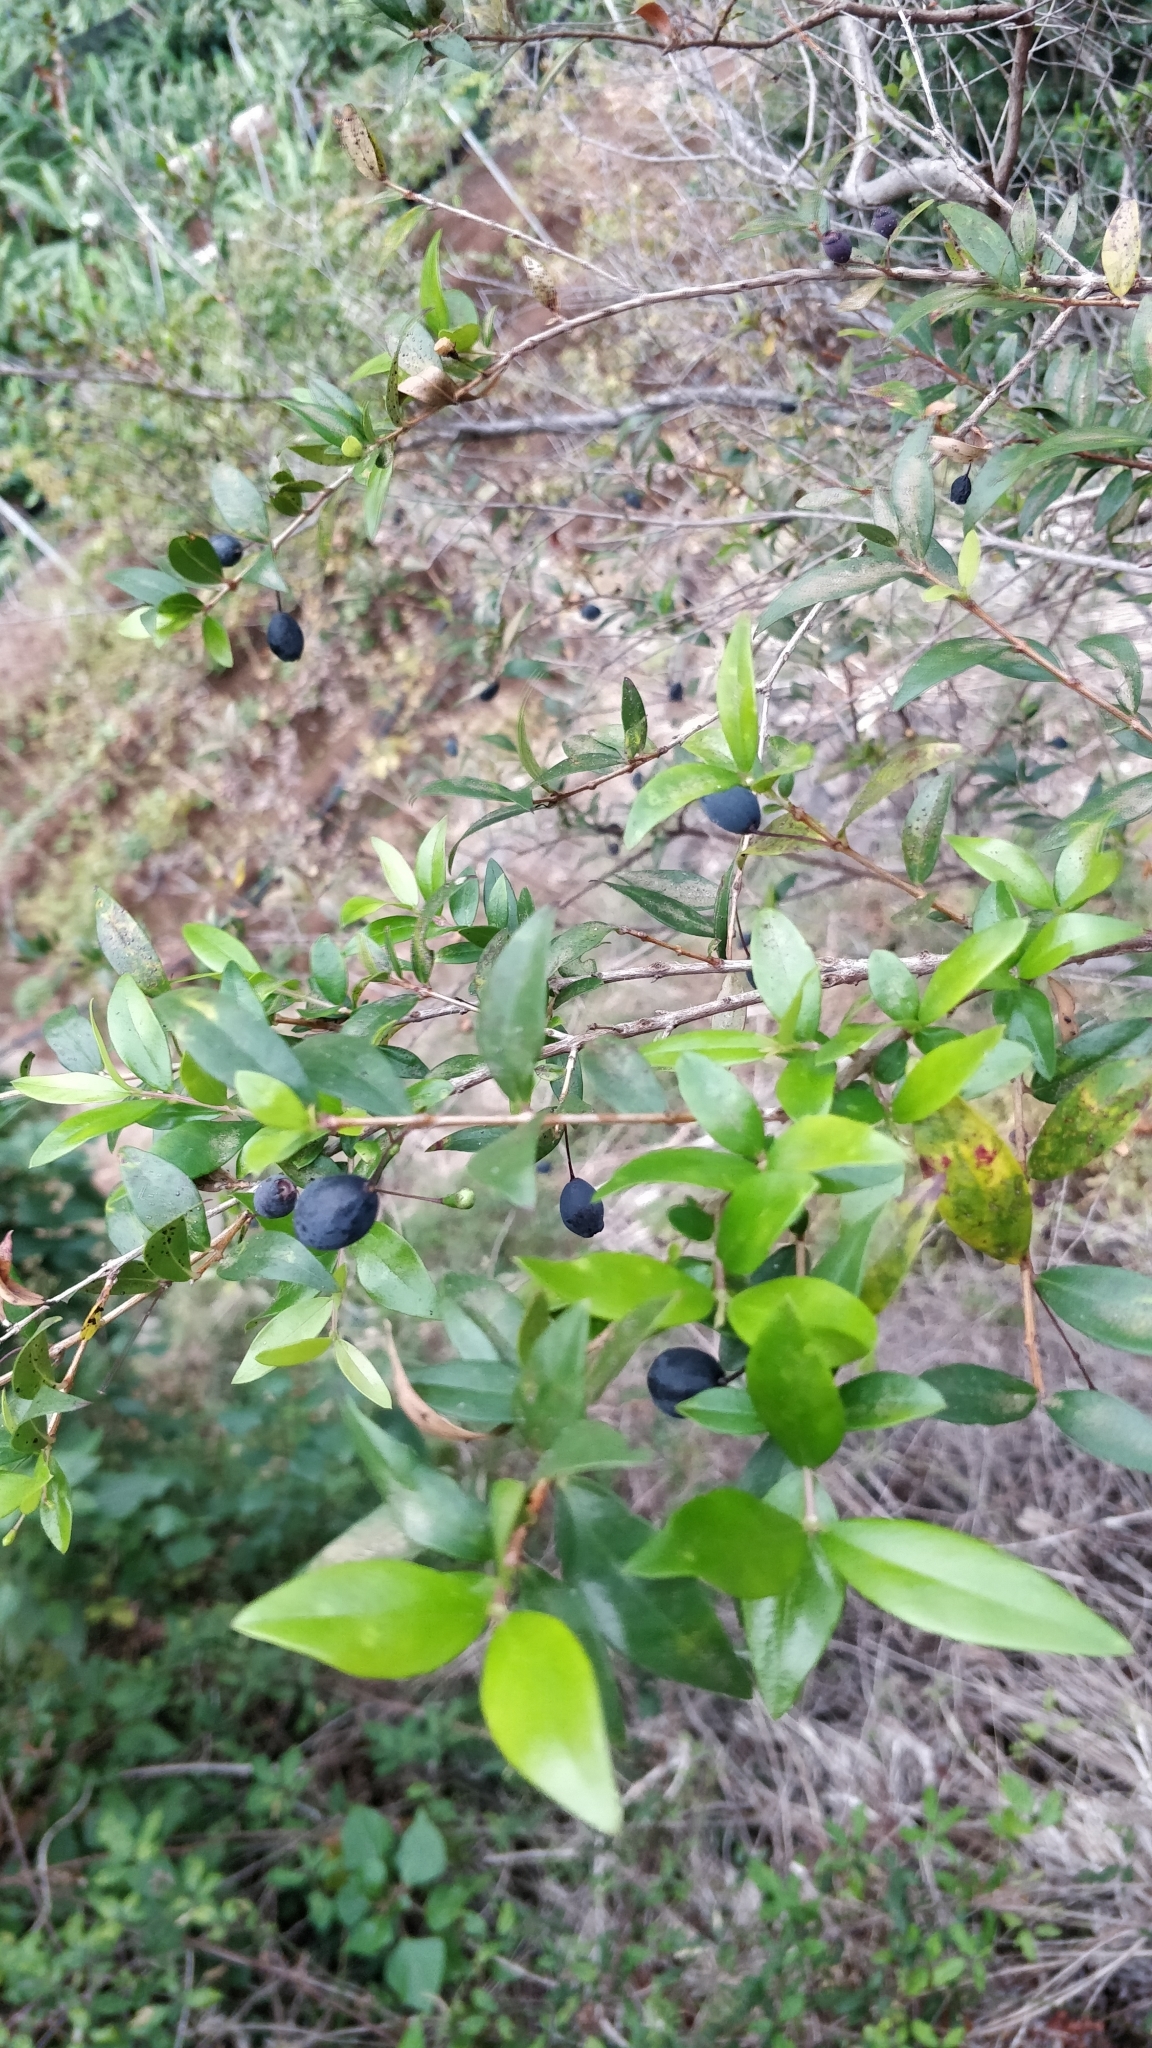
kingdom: Plantae
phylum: Tracheophyta
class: Magnoliopsida
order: Myrtales
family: Myrtaceae
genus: Myrtus
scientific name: Myrtus communis
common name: Myrtle
